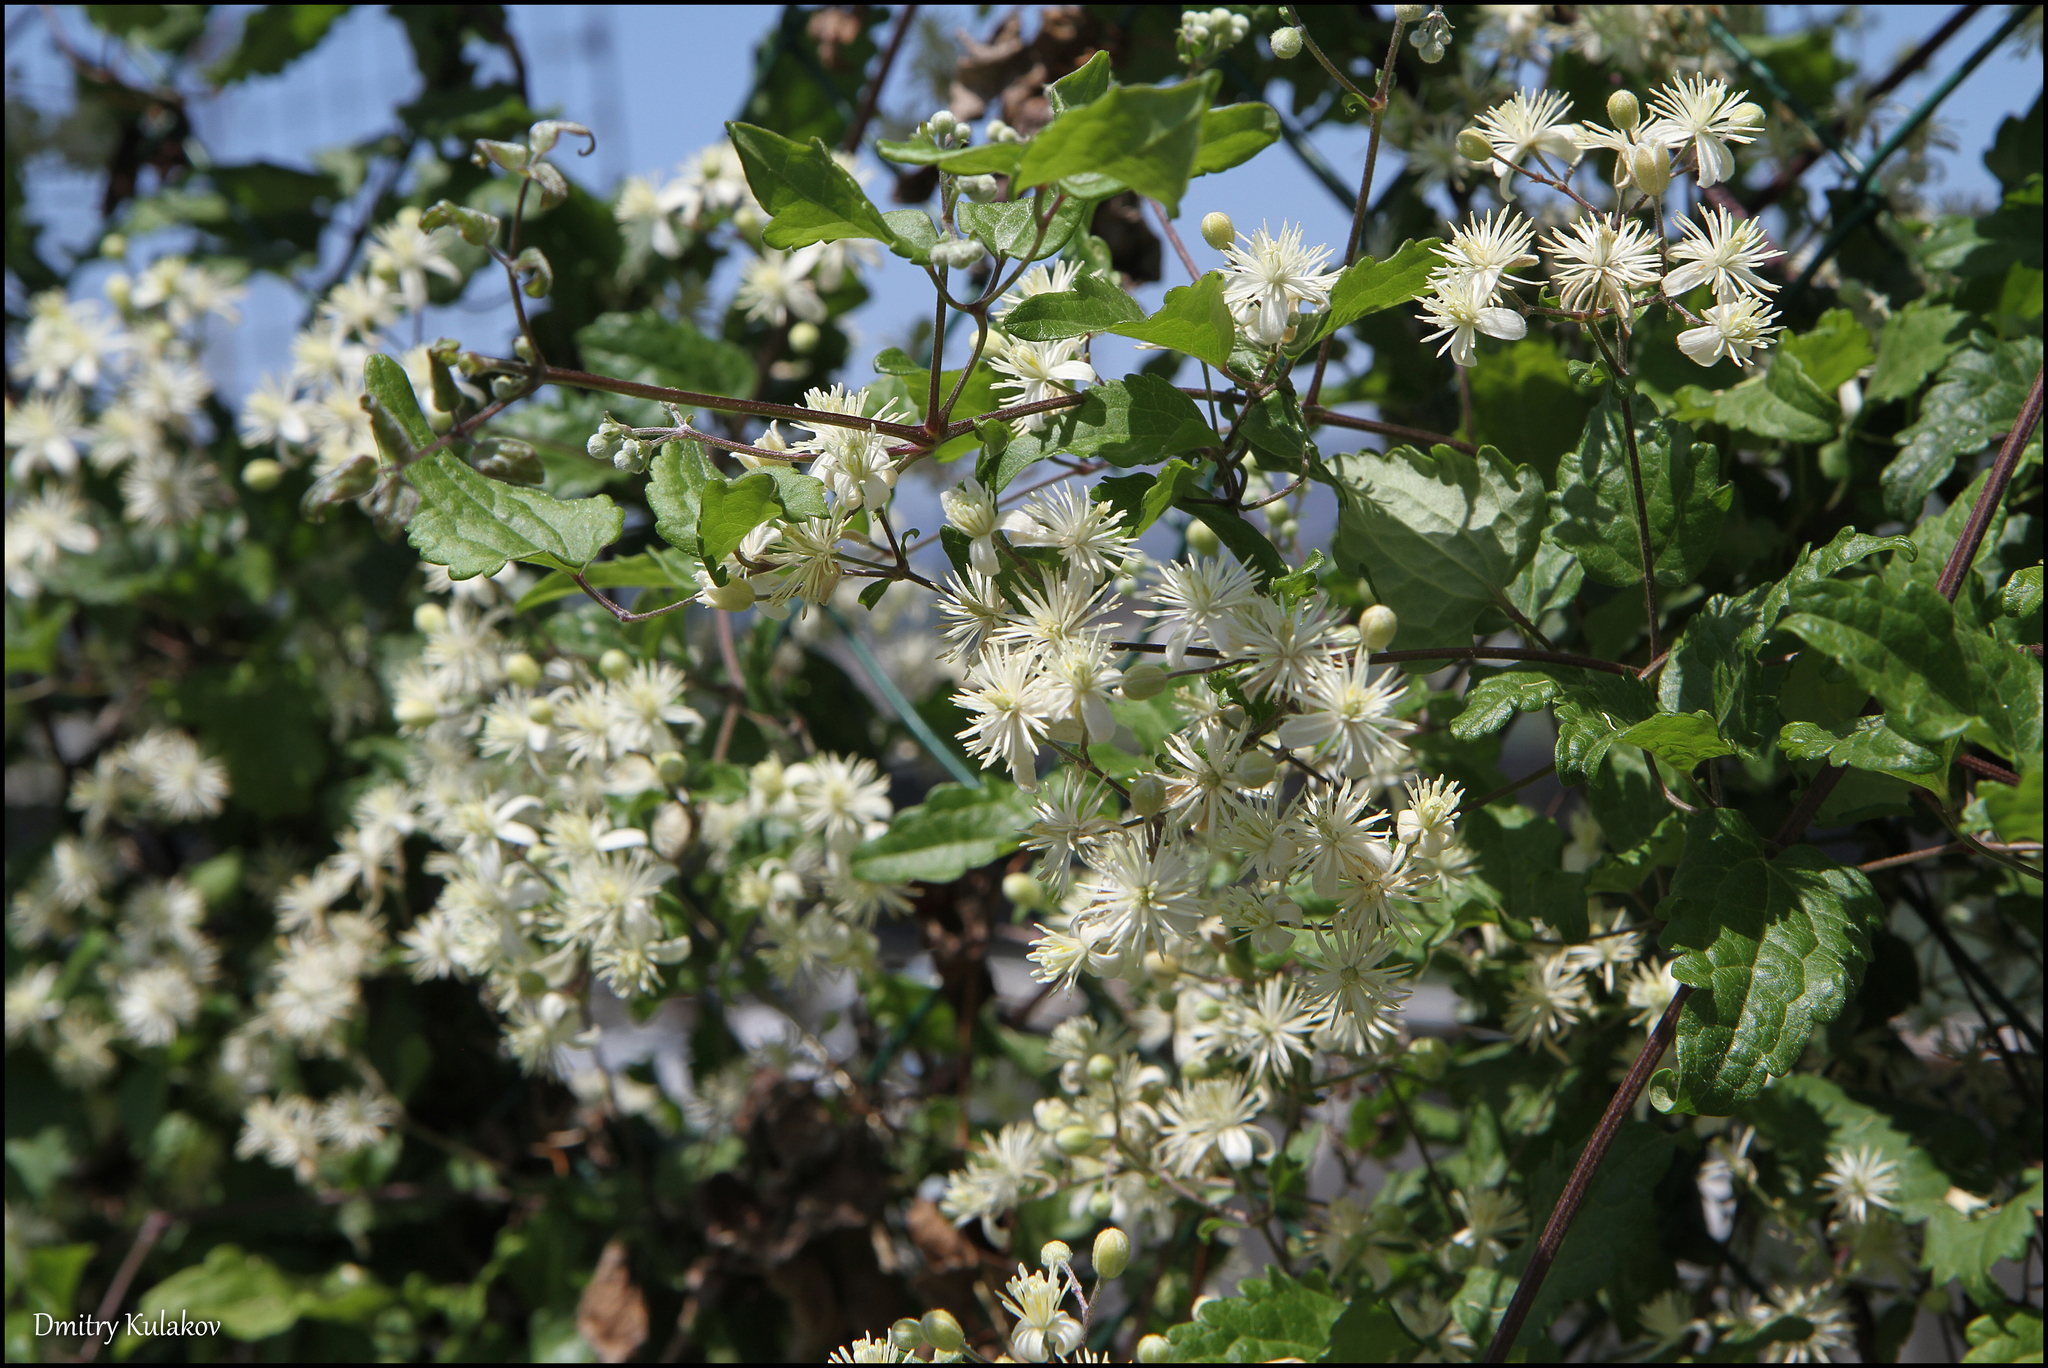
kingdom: Plantae
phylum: Tracheophyta
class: Magnoliopsida
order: Ranunculales
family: Ranunculaceae
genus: Clematis
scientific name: Clematis vitalba
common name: Evergreen clematis
